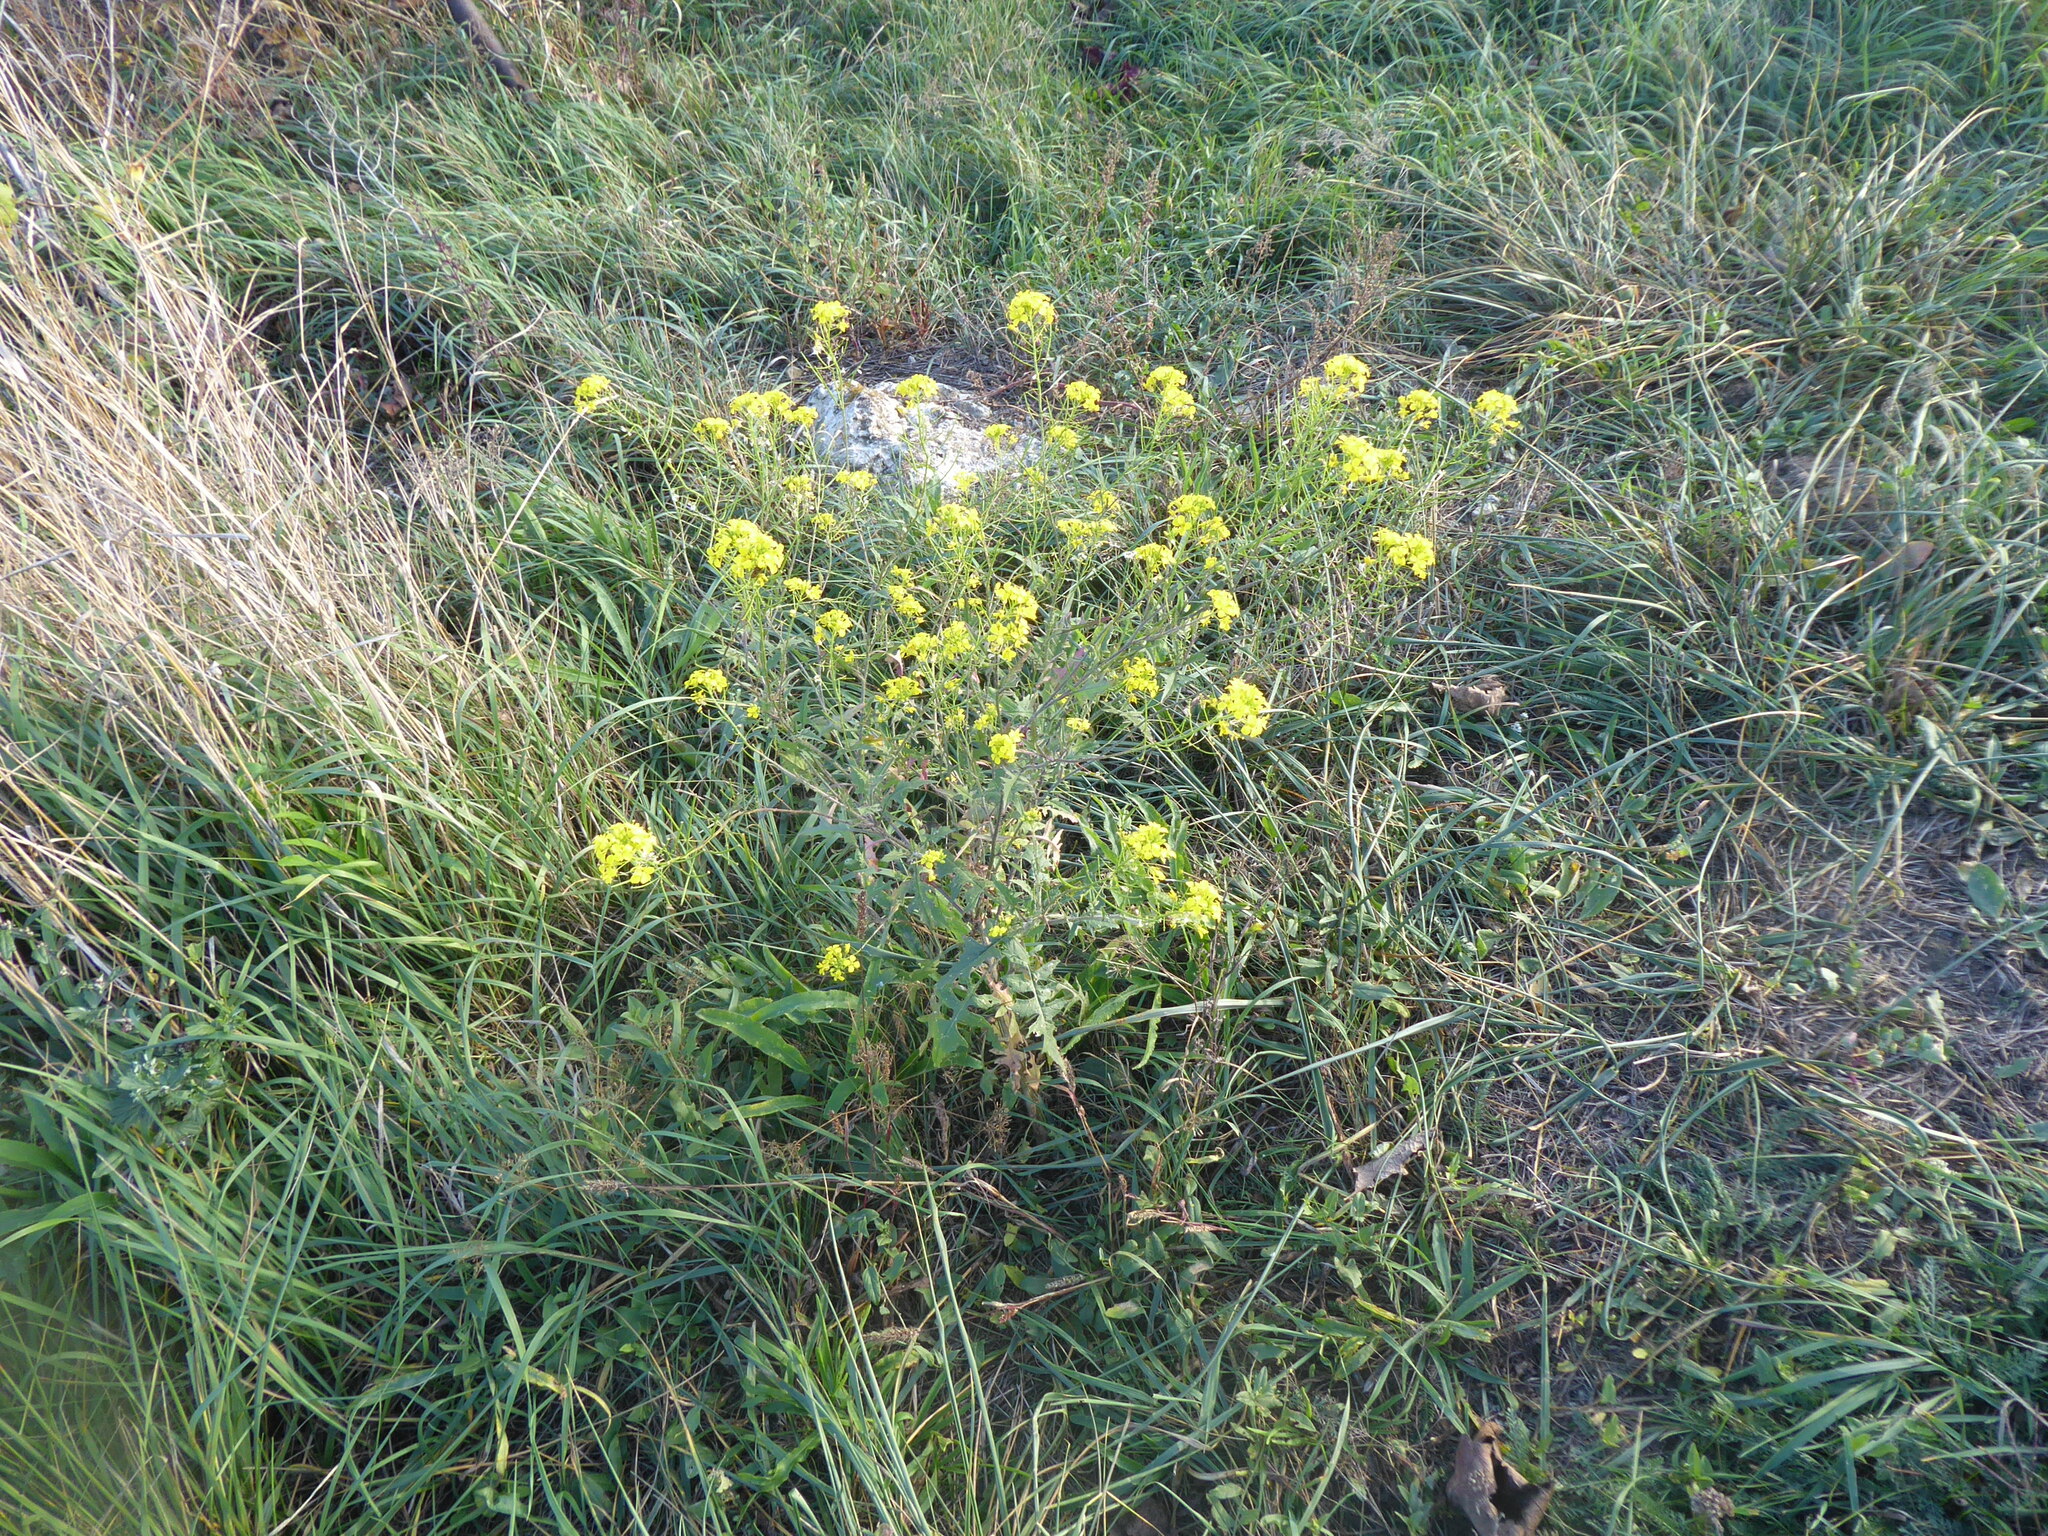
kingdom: Plantae
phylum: Tracheophyta
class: Magnoliopsida
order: Brassicales
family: Brassicaceae
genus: Sisymbrium
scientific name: Sisymbrium loeselii
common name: False london-rocket
